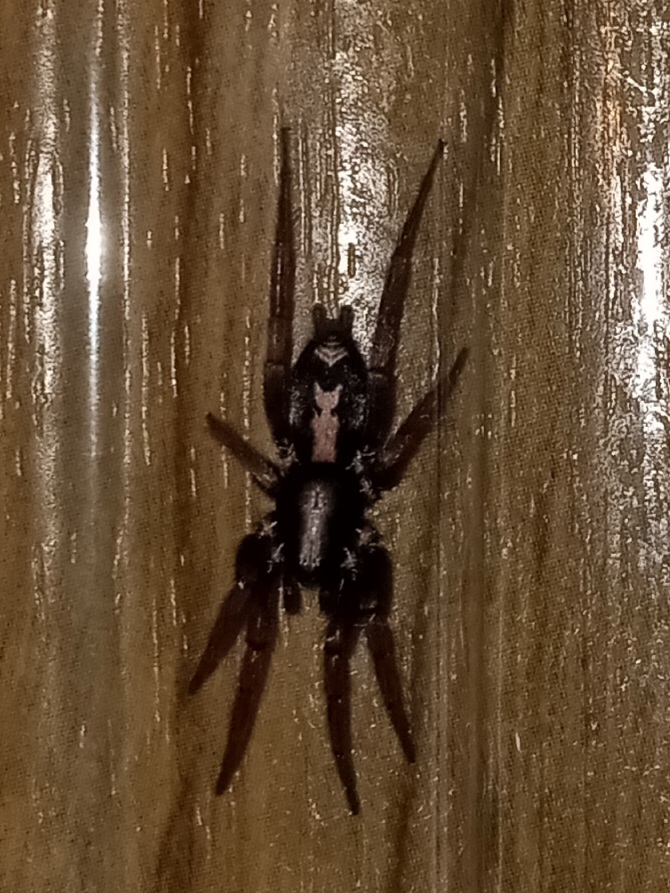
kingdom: Animalia
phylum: Arthropoda
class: Arachnida
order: Araneae
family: Gnaphosidae
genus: Herpyllus
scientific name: Herpyllus ecclesiasticus
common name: Eastern parson spider
